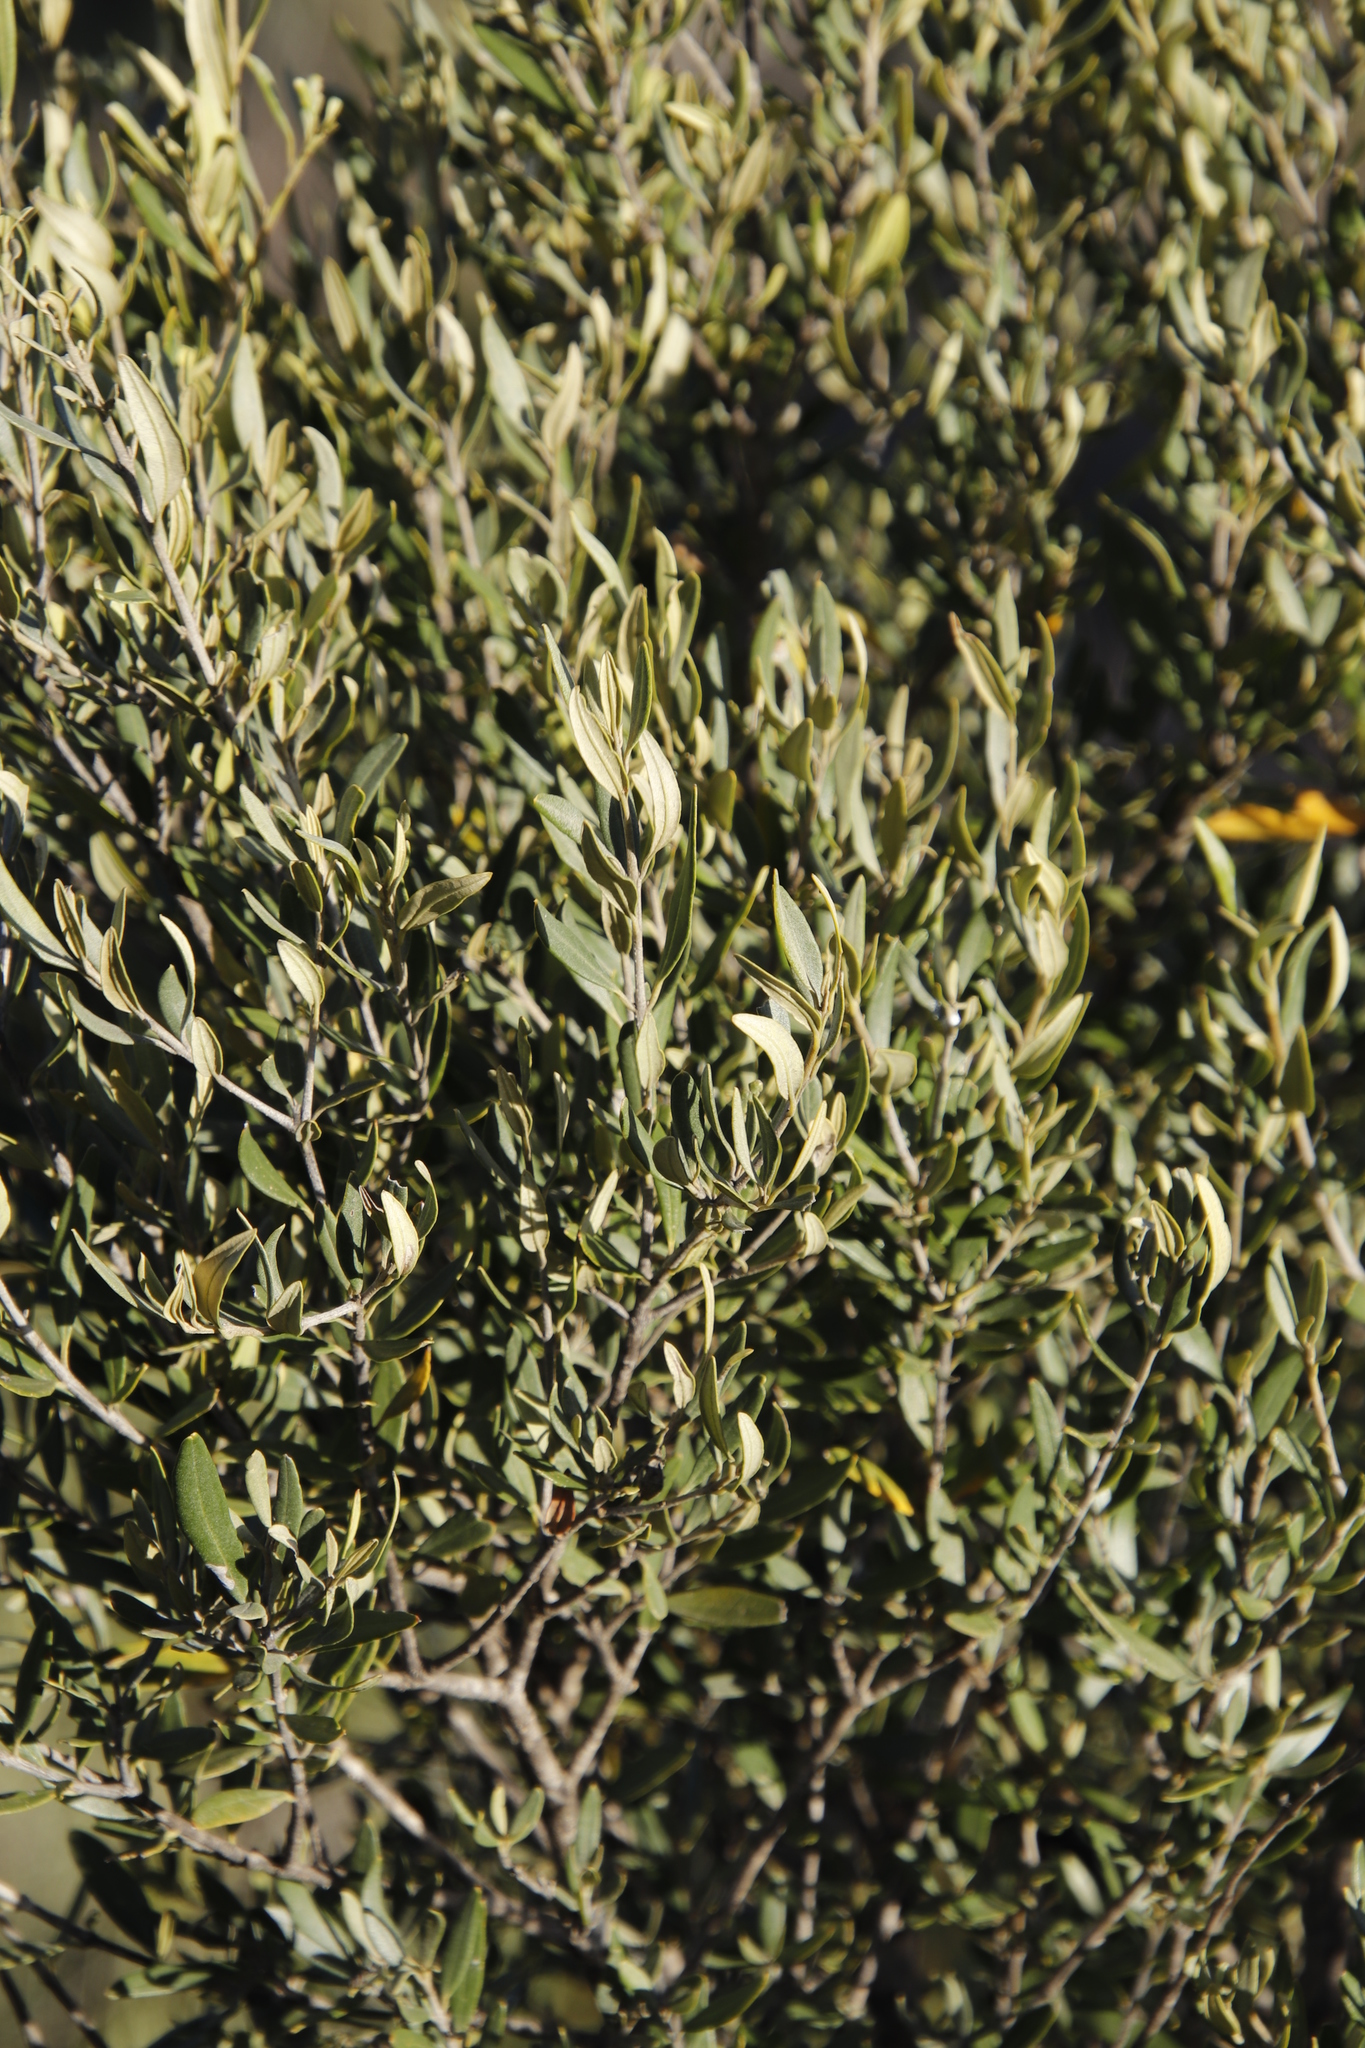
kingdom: Plantae
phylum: Tracheophyta
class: Magnoliopsida
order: Lamiales
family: Oleaceae
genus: Olea
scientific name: Olea europaea
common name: Olive
